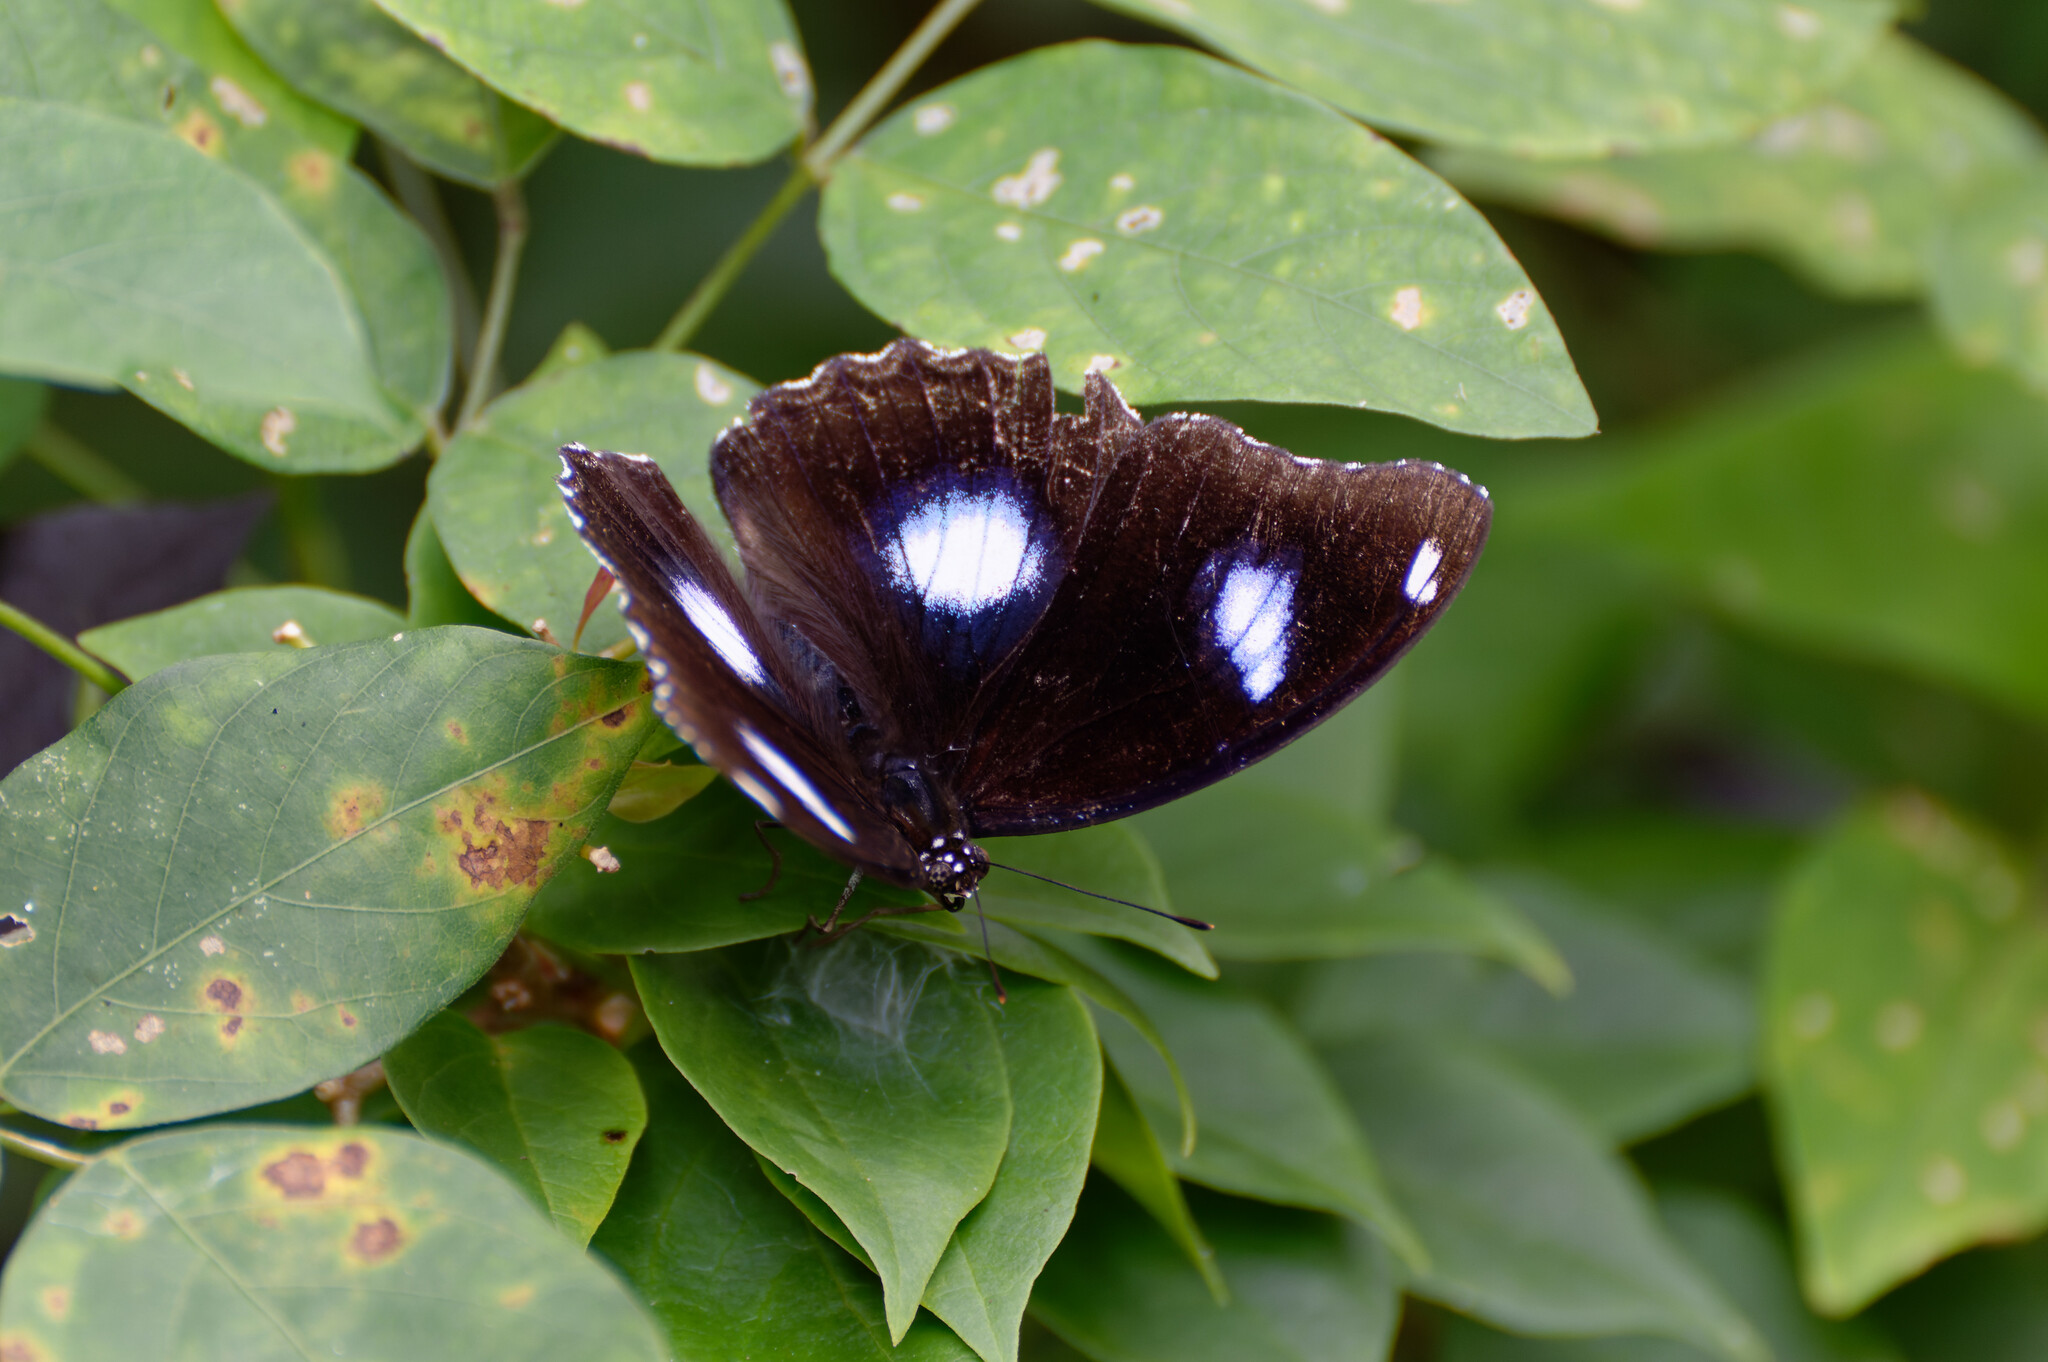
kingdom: Animalia
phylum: Arthropoda
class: Insecta
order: Lepidoptera
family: Nymphalidae
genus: Hypolimnas
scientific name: Hypolimnas bolina
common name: Great eggfly
